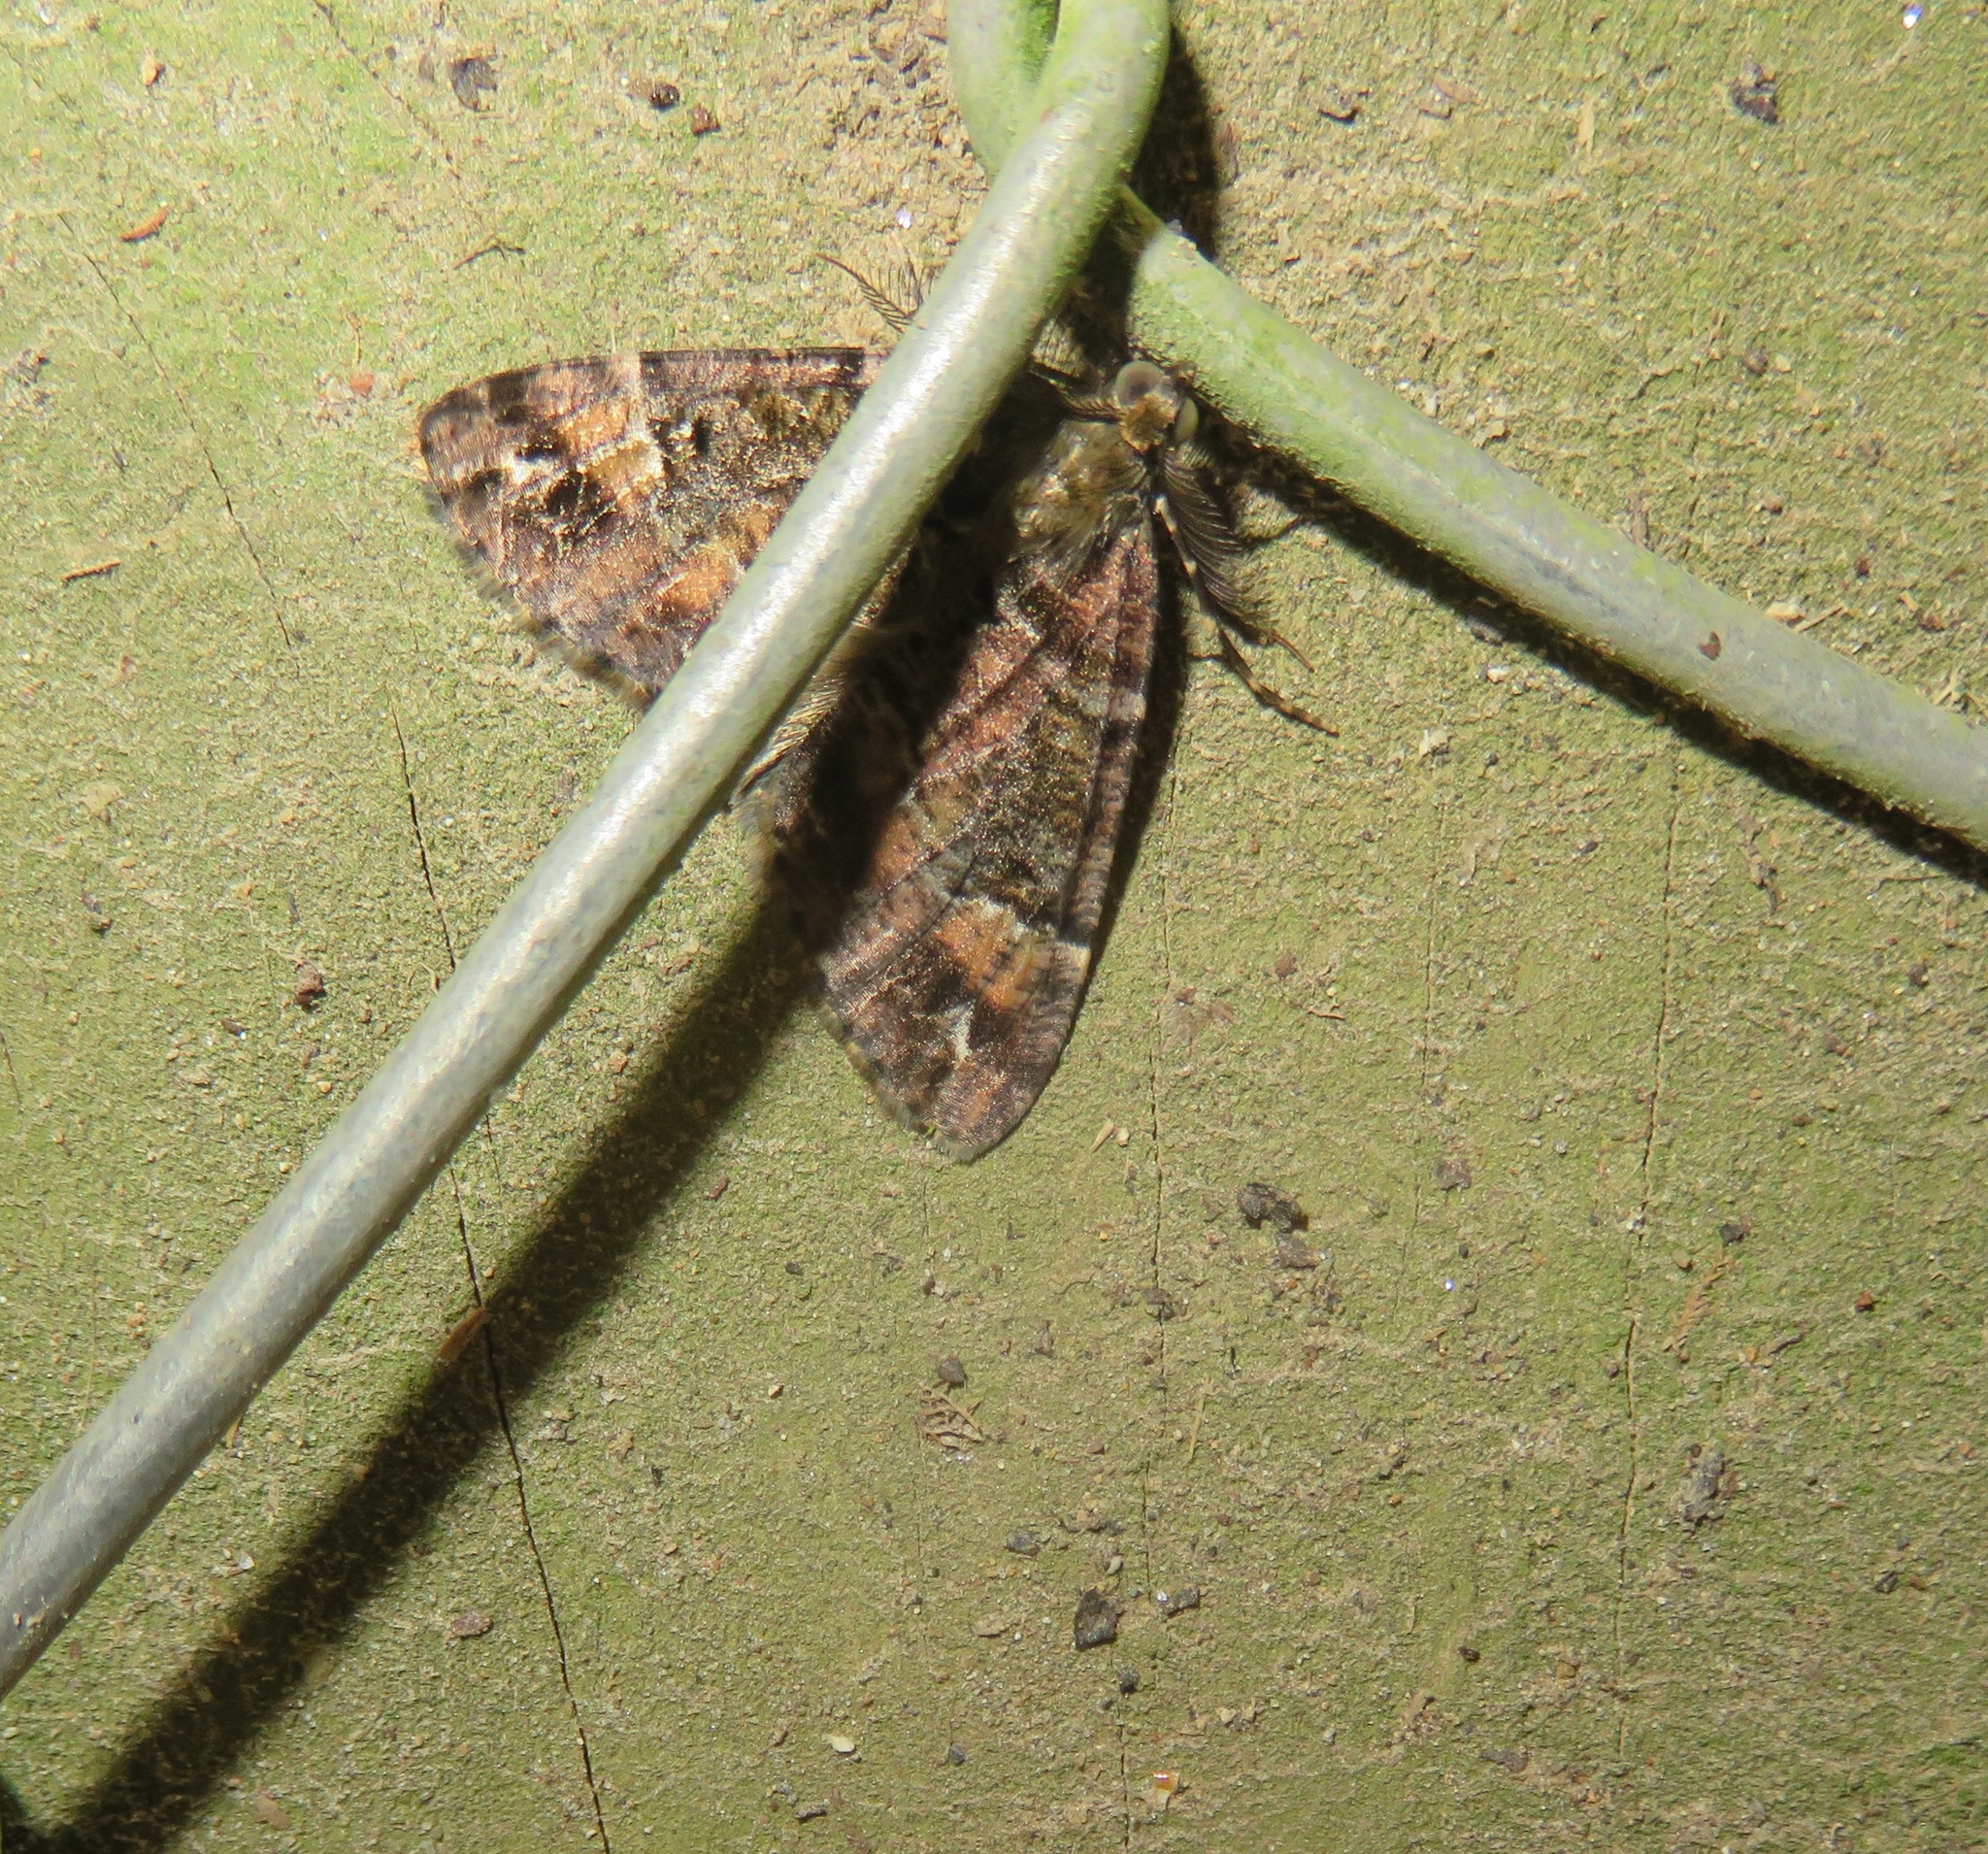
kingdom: Animalia
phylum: Arthropoda
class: Insecta
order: Lepidoptera
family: Geometridae
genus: Pseudocoremia
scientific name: Pseudocoremia productata
